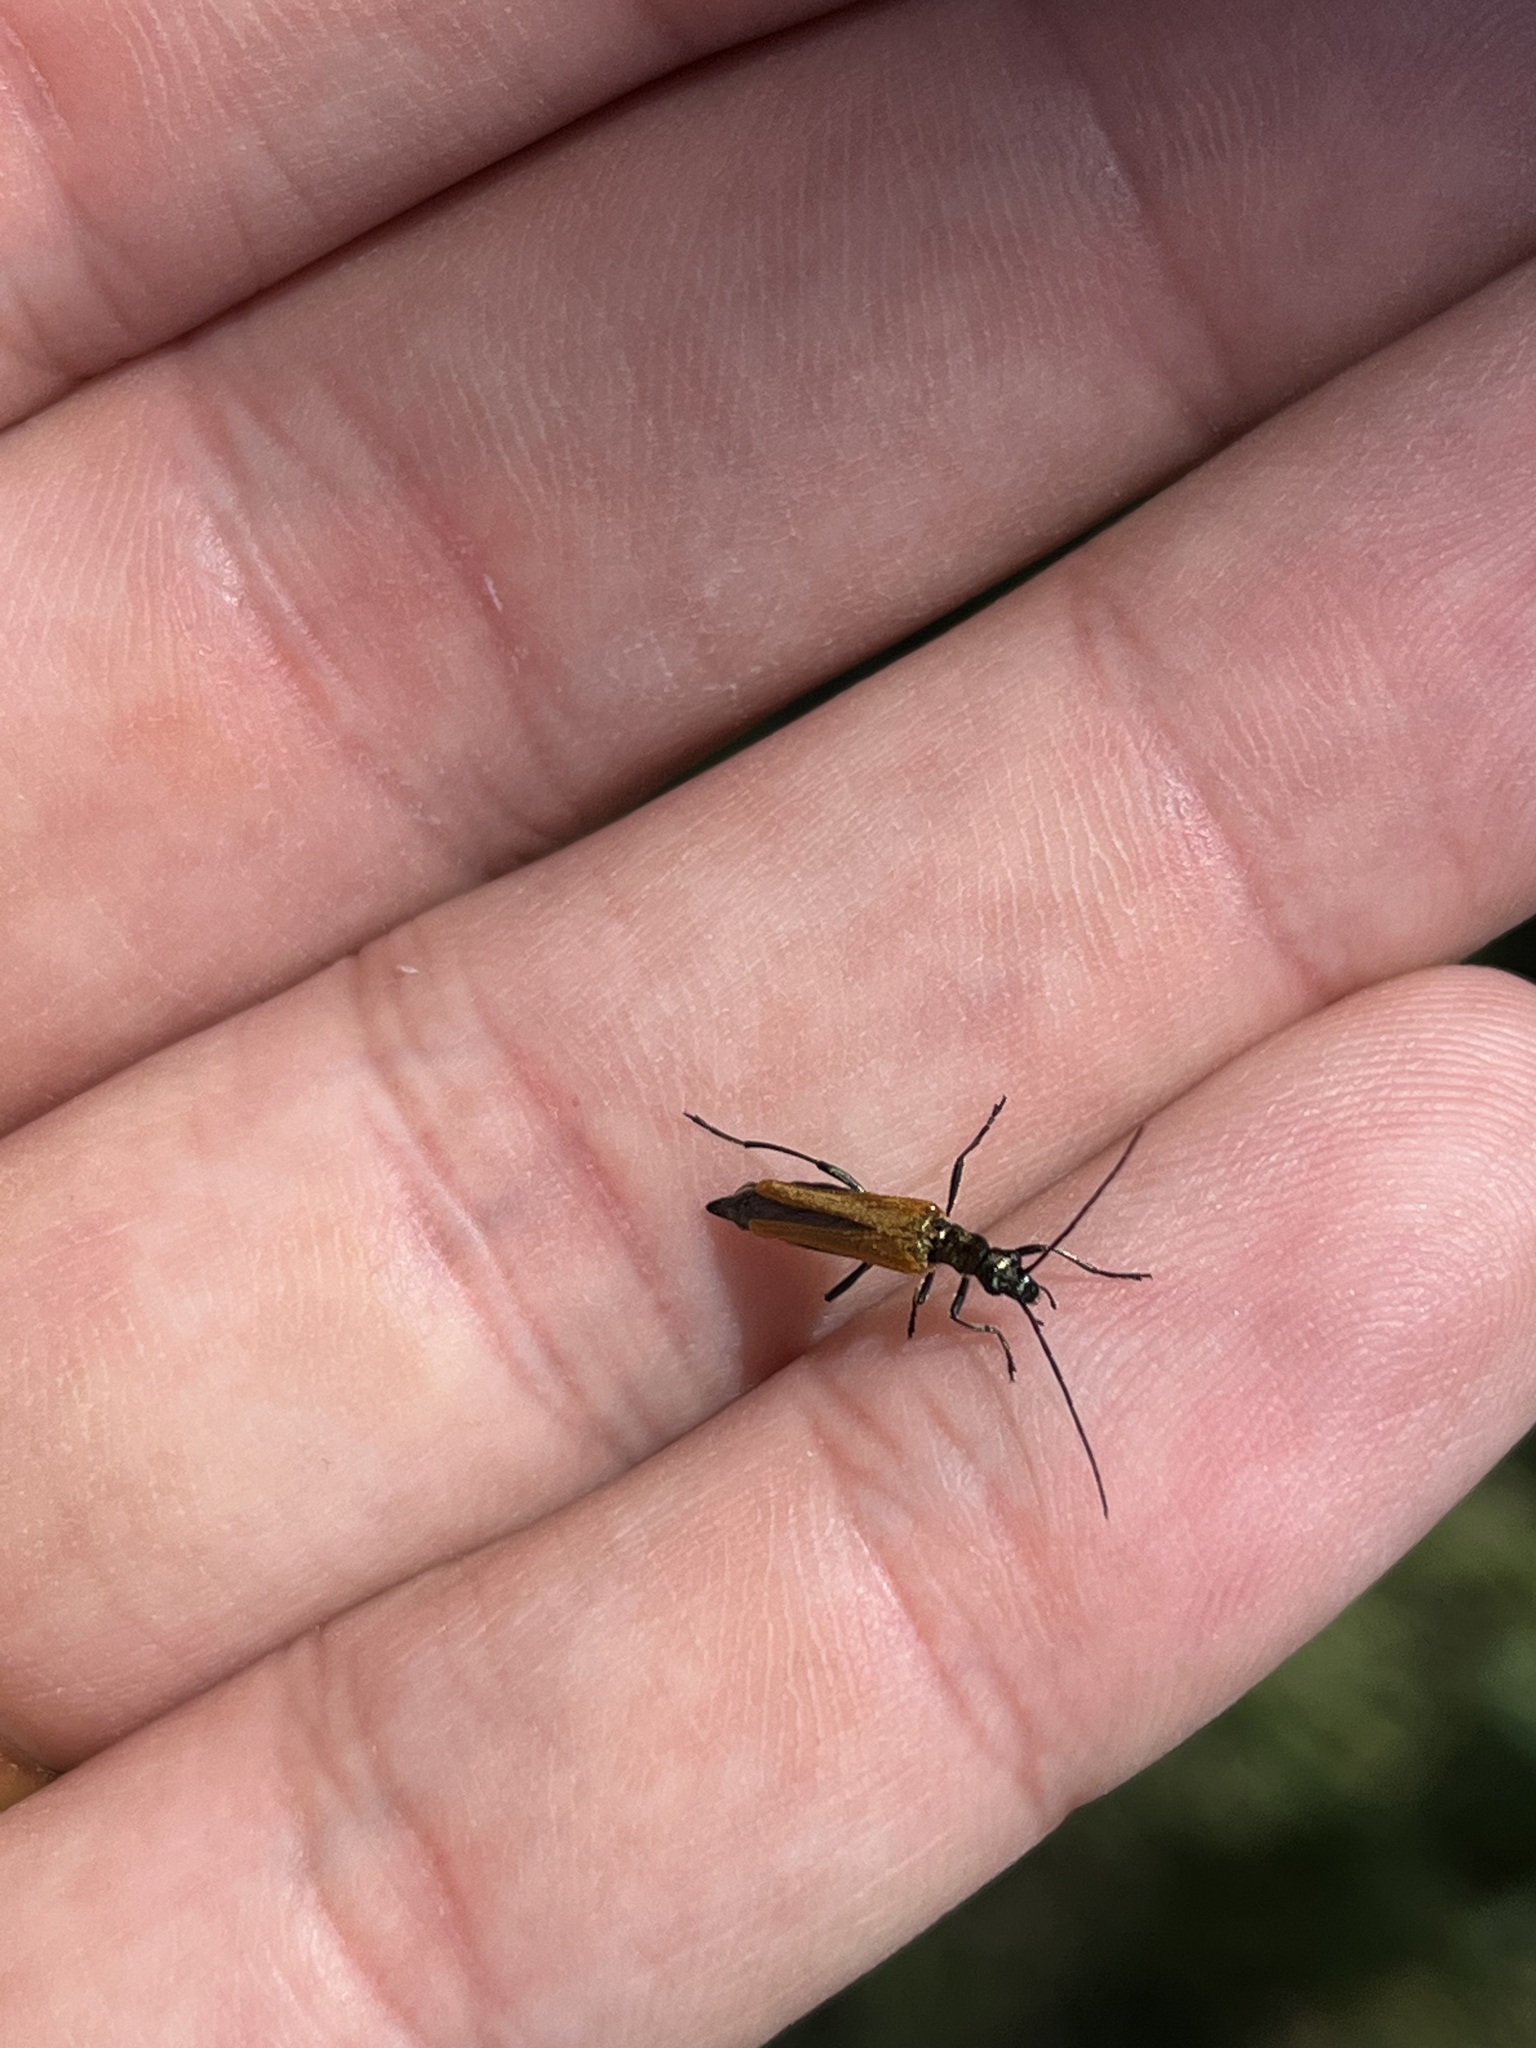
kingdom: Animalia
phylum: Arthropoda
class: Insecta
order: Coleoptera
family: Oedemeridae
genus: Oedemera
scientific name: Oedemera femorata
